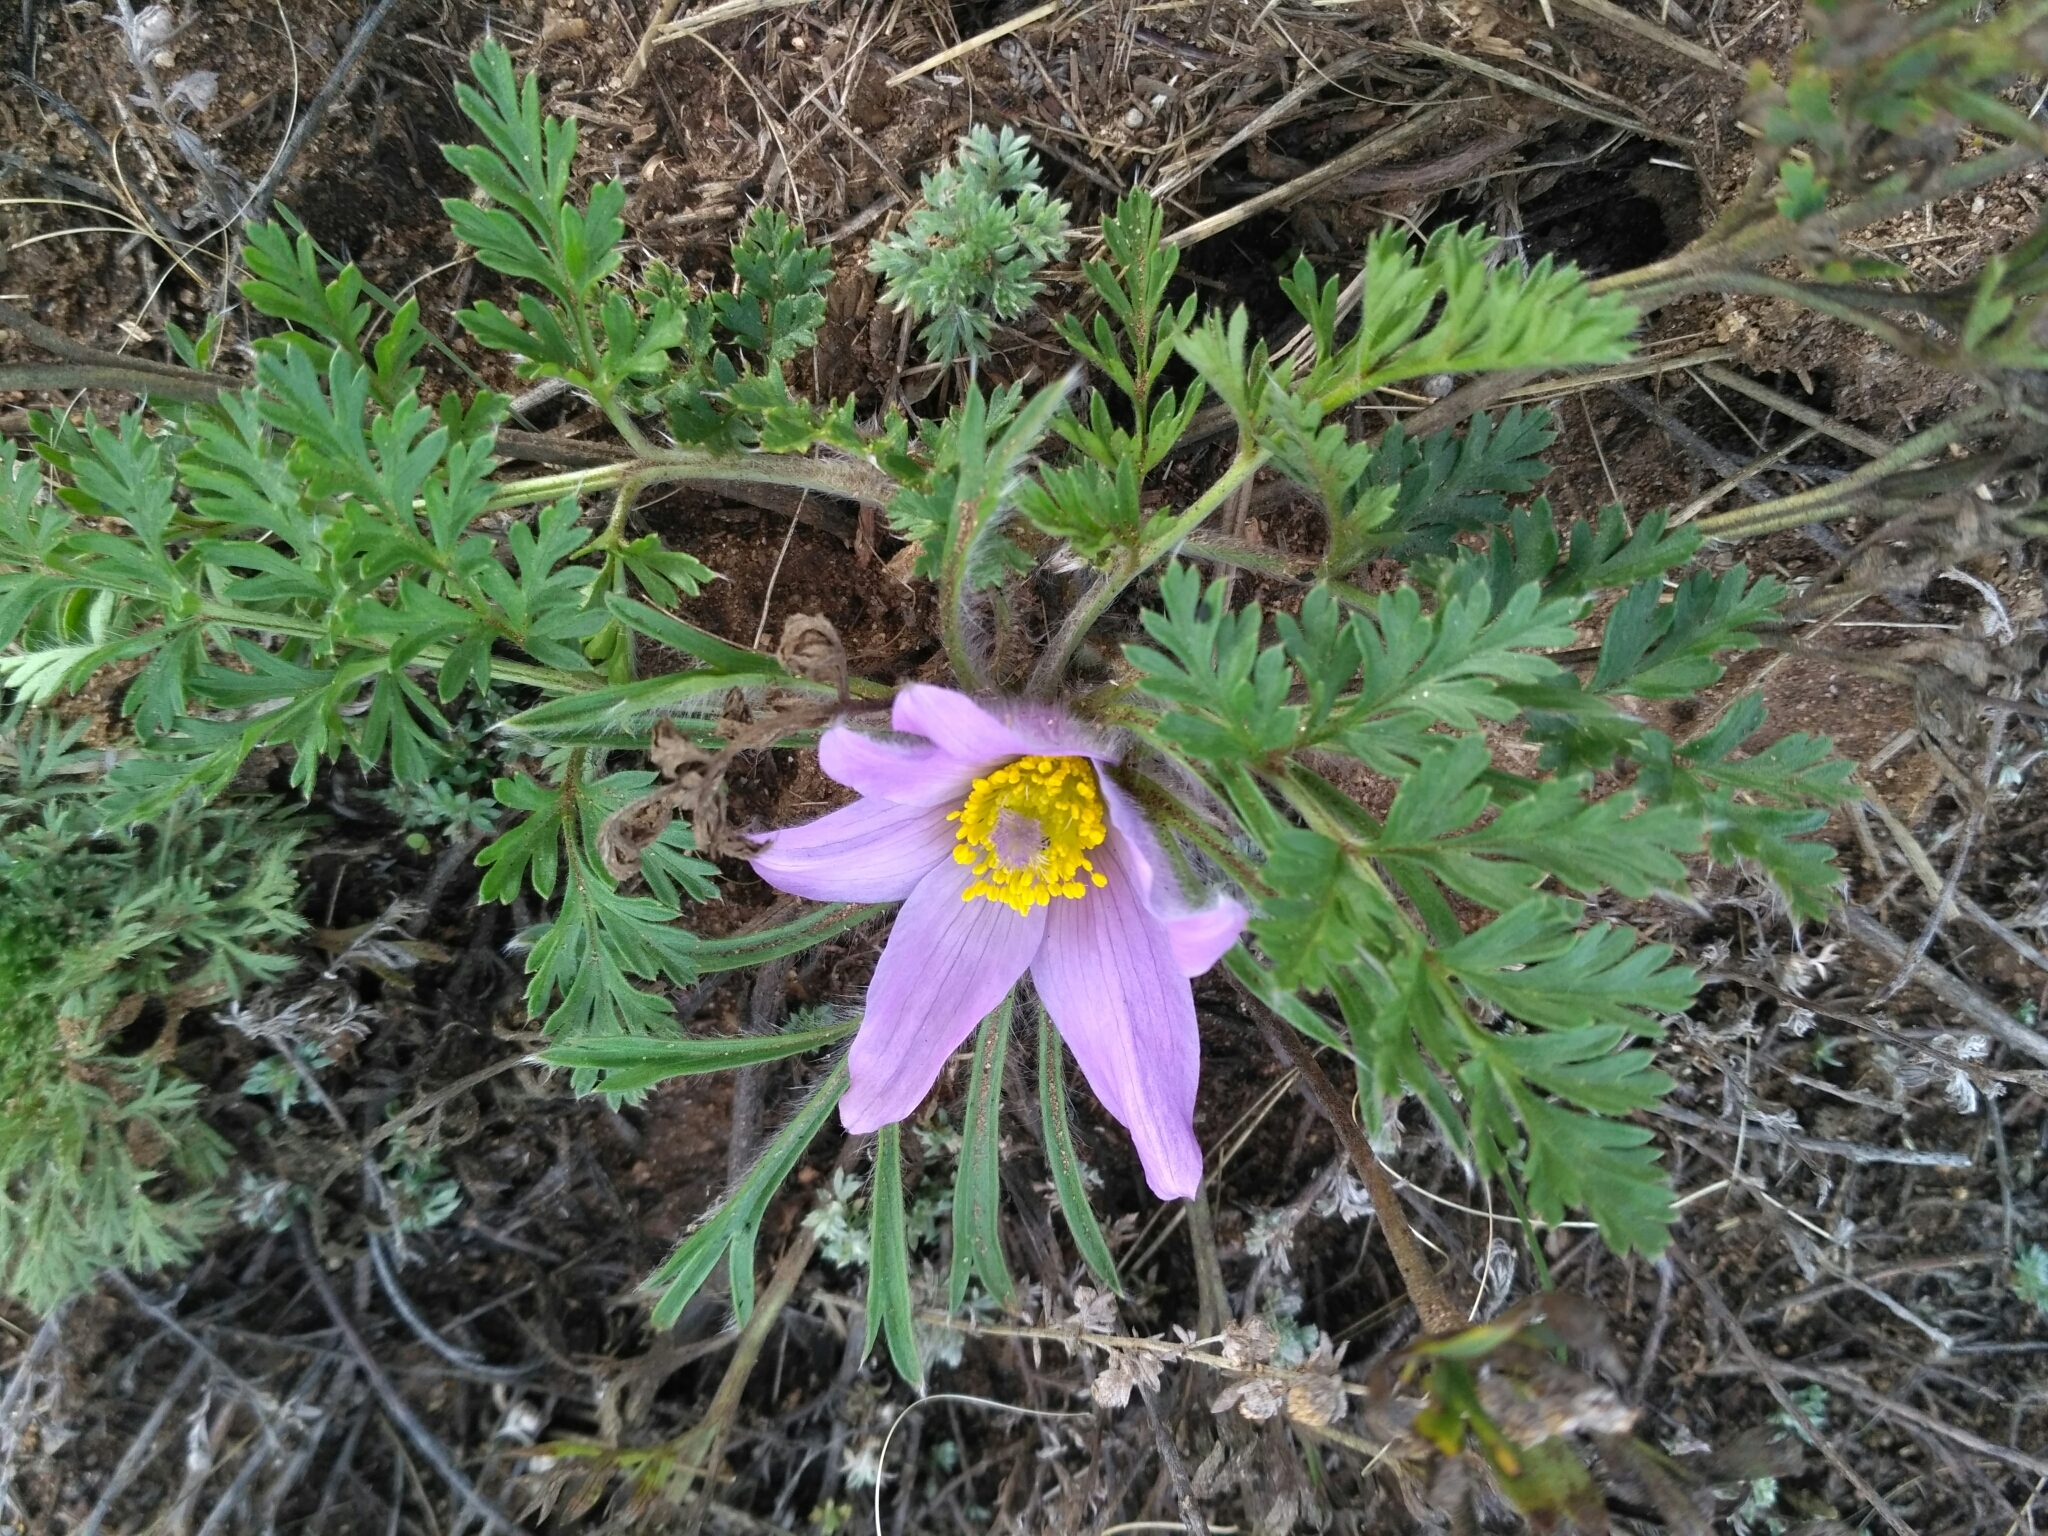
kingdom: Plantae
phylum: Tracheophyta
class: Magnoliopsida
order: Ranunculales
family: Ranunculaceae
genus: Pulsatilla
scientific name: Pulsatilla ambigua
